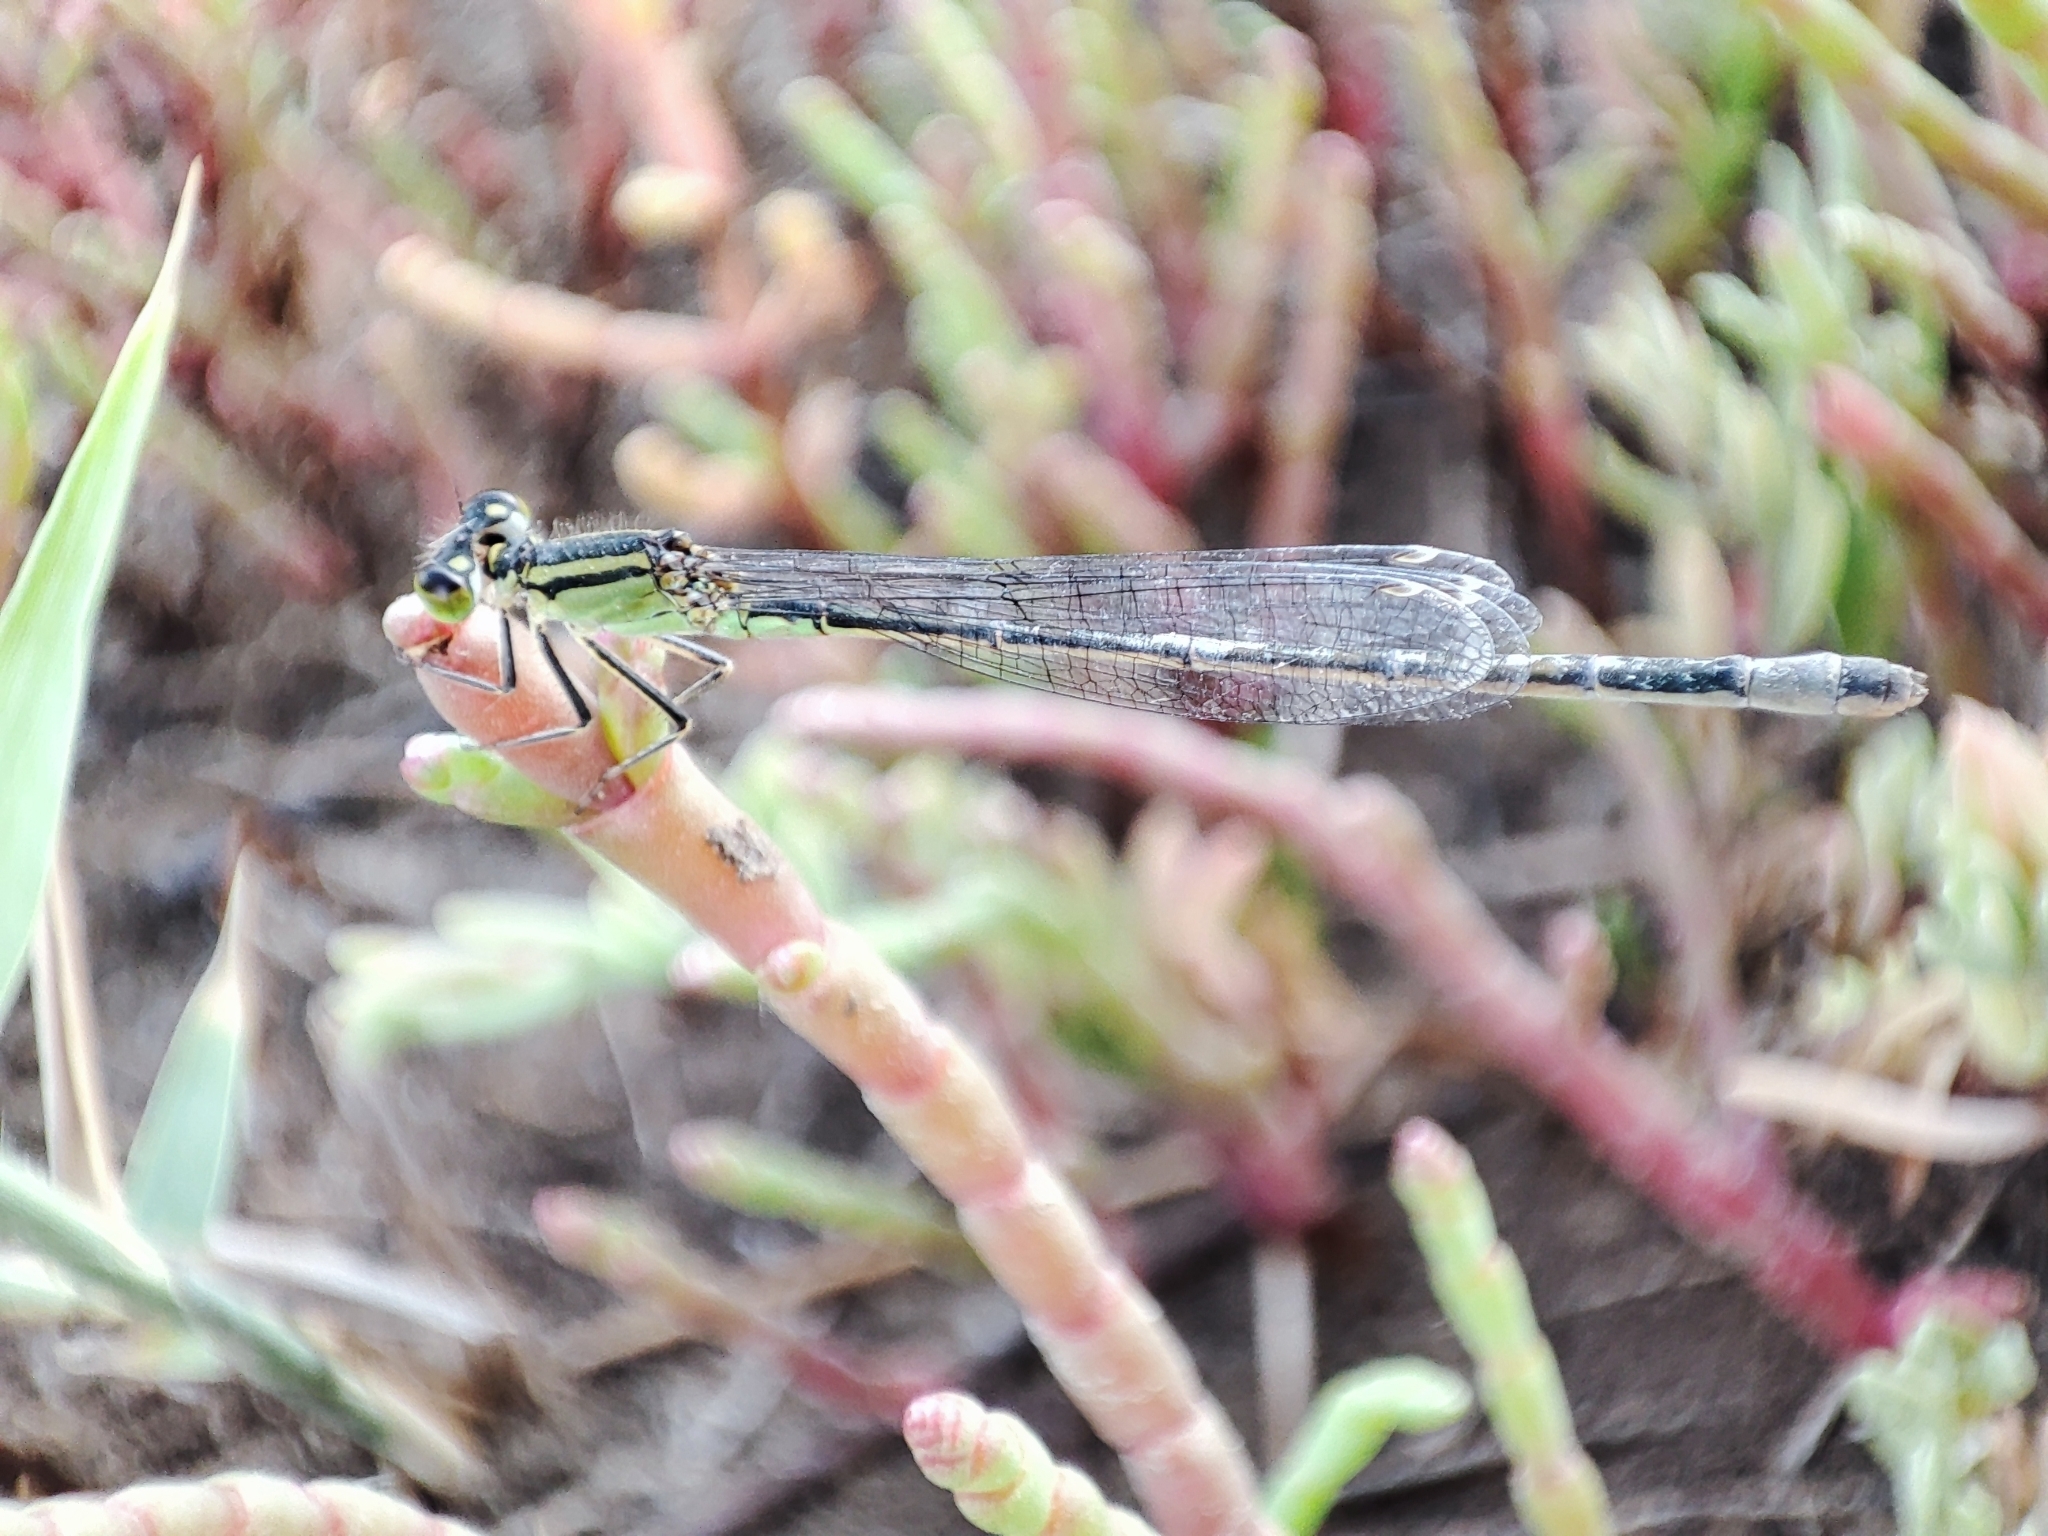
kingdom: Animalia
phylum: Arthropoda
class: Insecta
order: Odonata
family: Coenagrionidae
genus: Ischnura
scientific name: Ischnura elegans
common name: Blue-tailed damselfly
